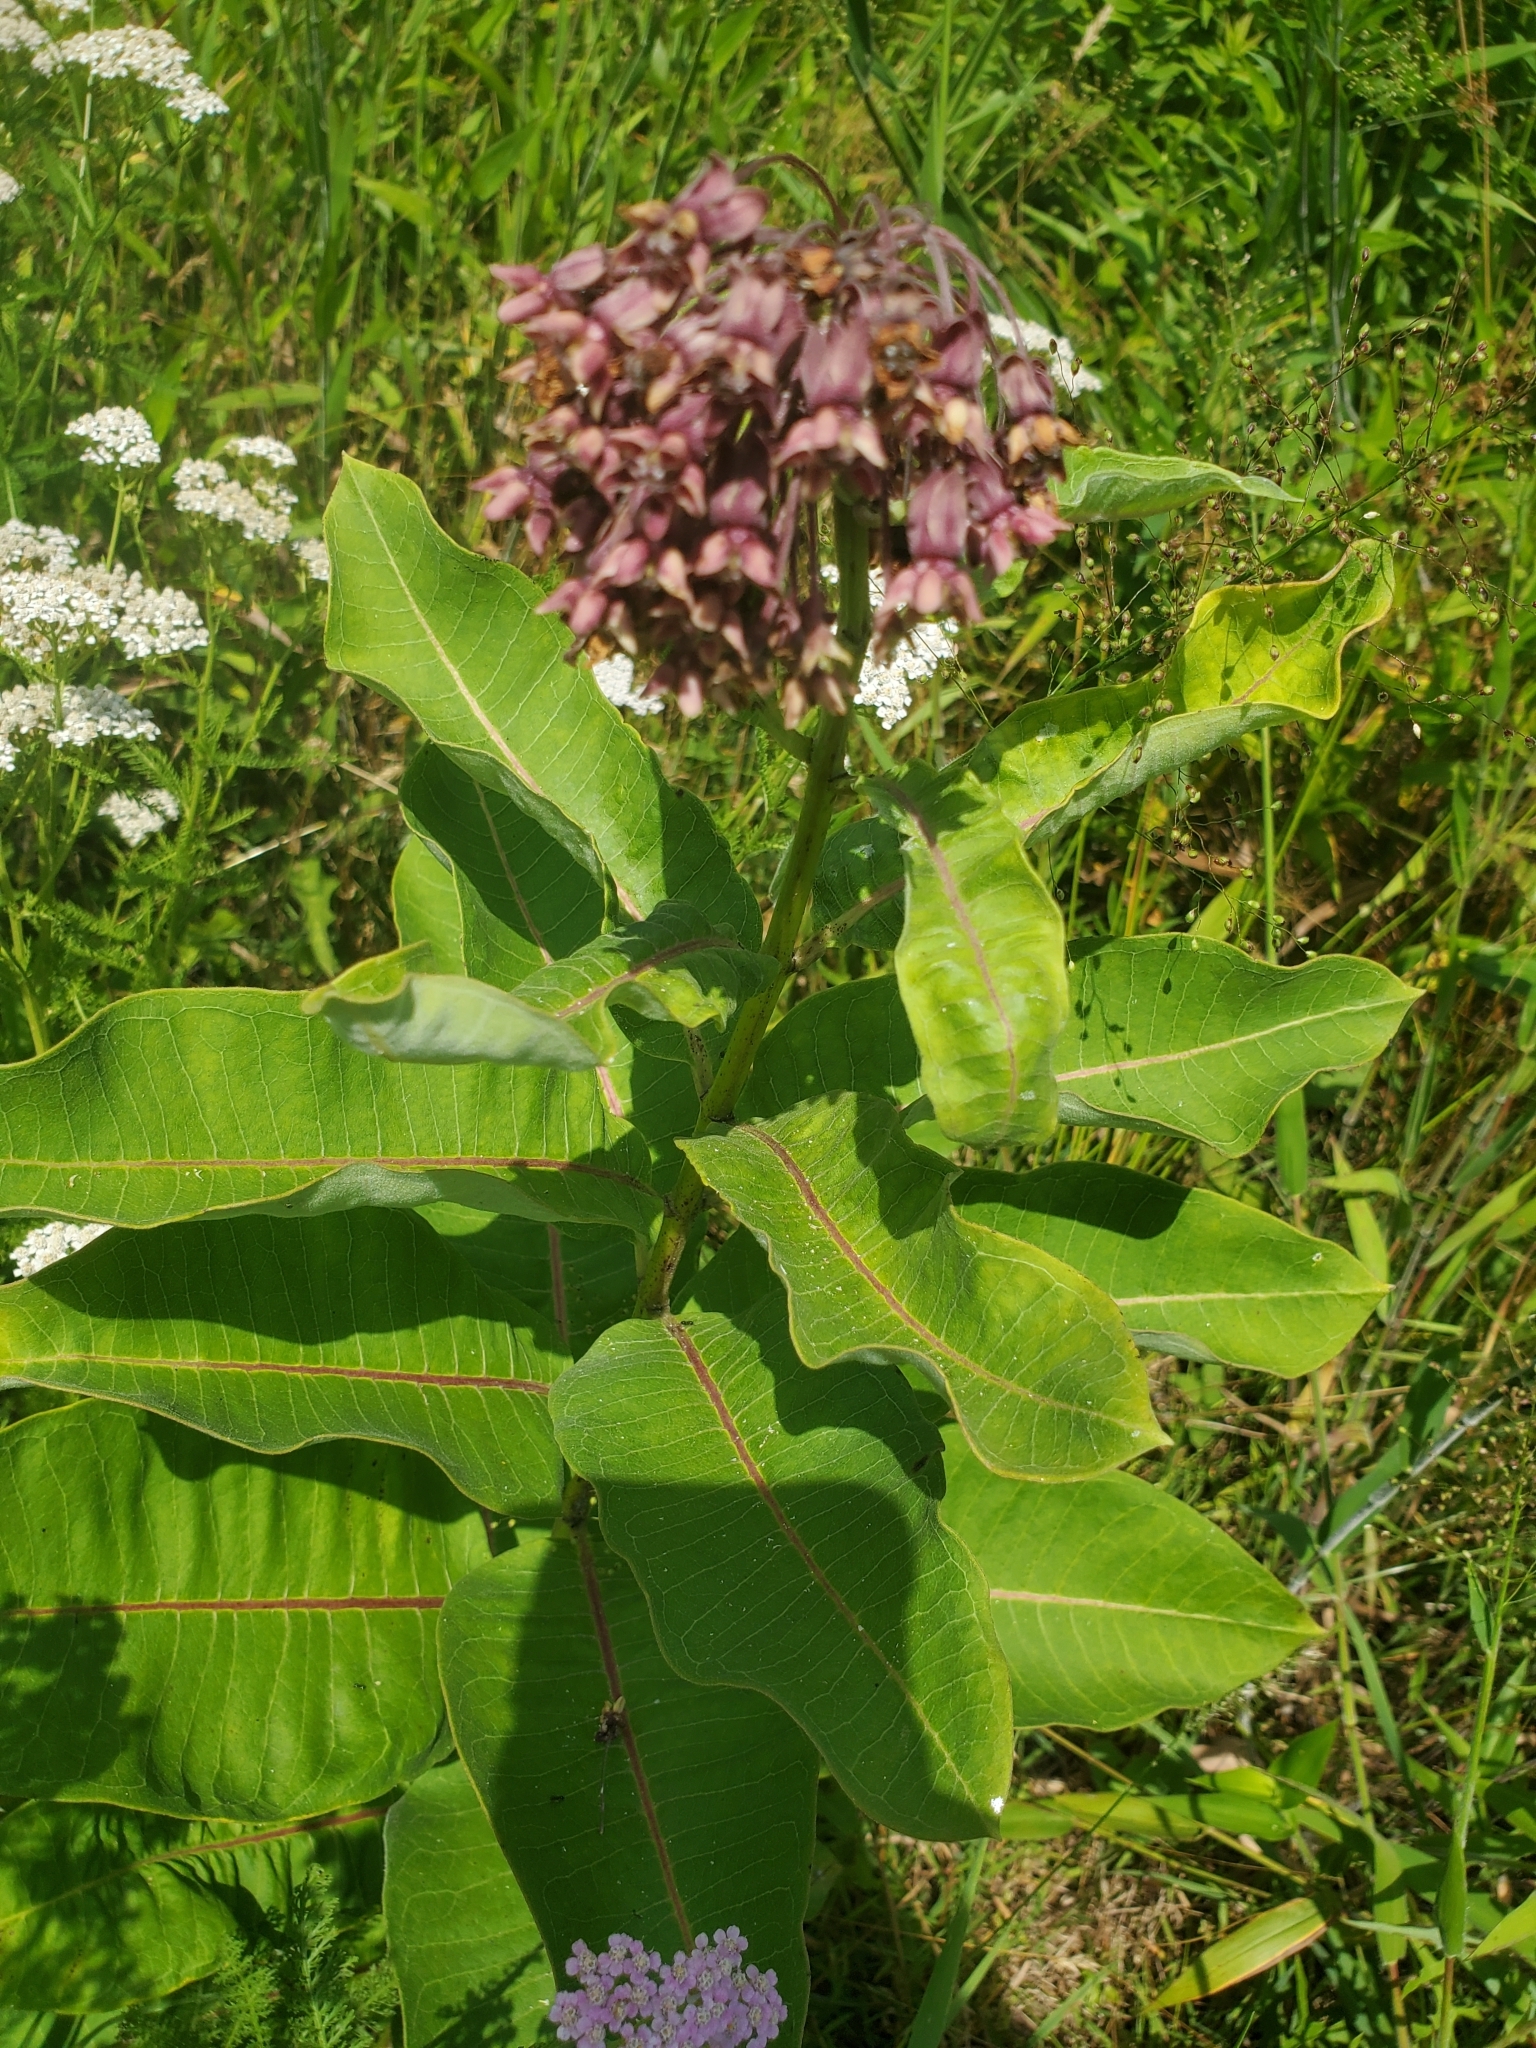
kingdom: Plantae
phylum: Tracheophyta
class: Magnoliopsida
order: Gentianales
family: Apocynaceae
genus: Asclepias
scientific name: Asclepias syriaca
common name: Common milkweed
